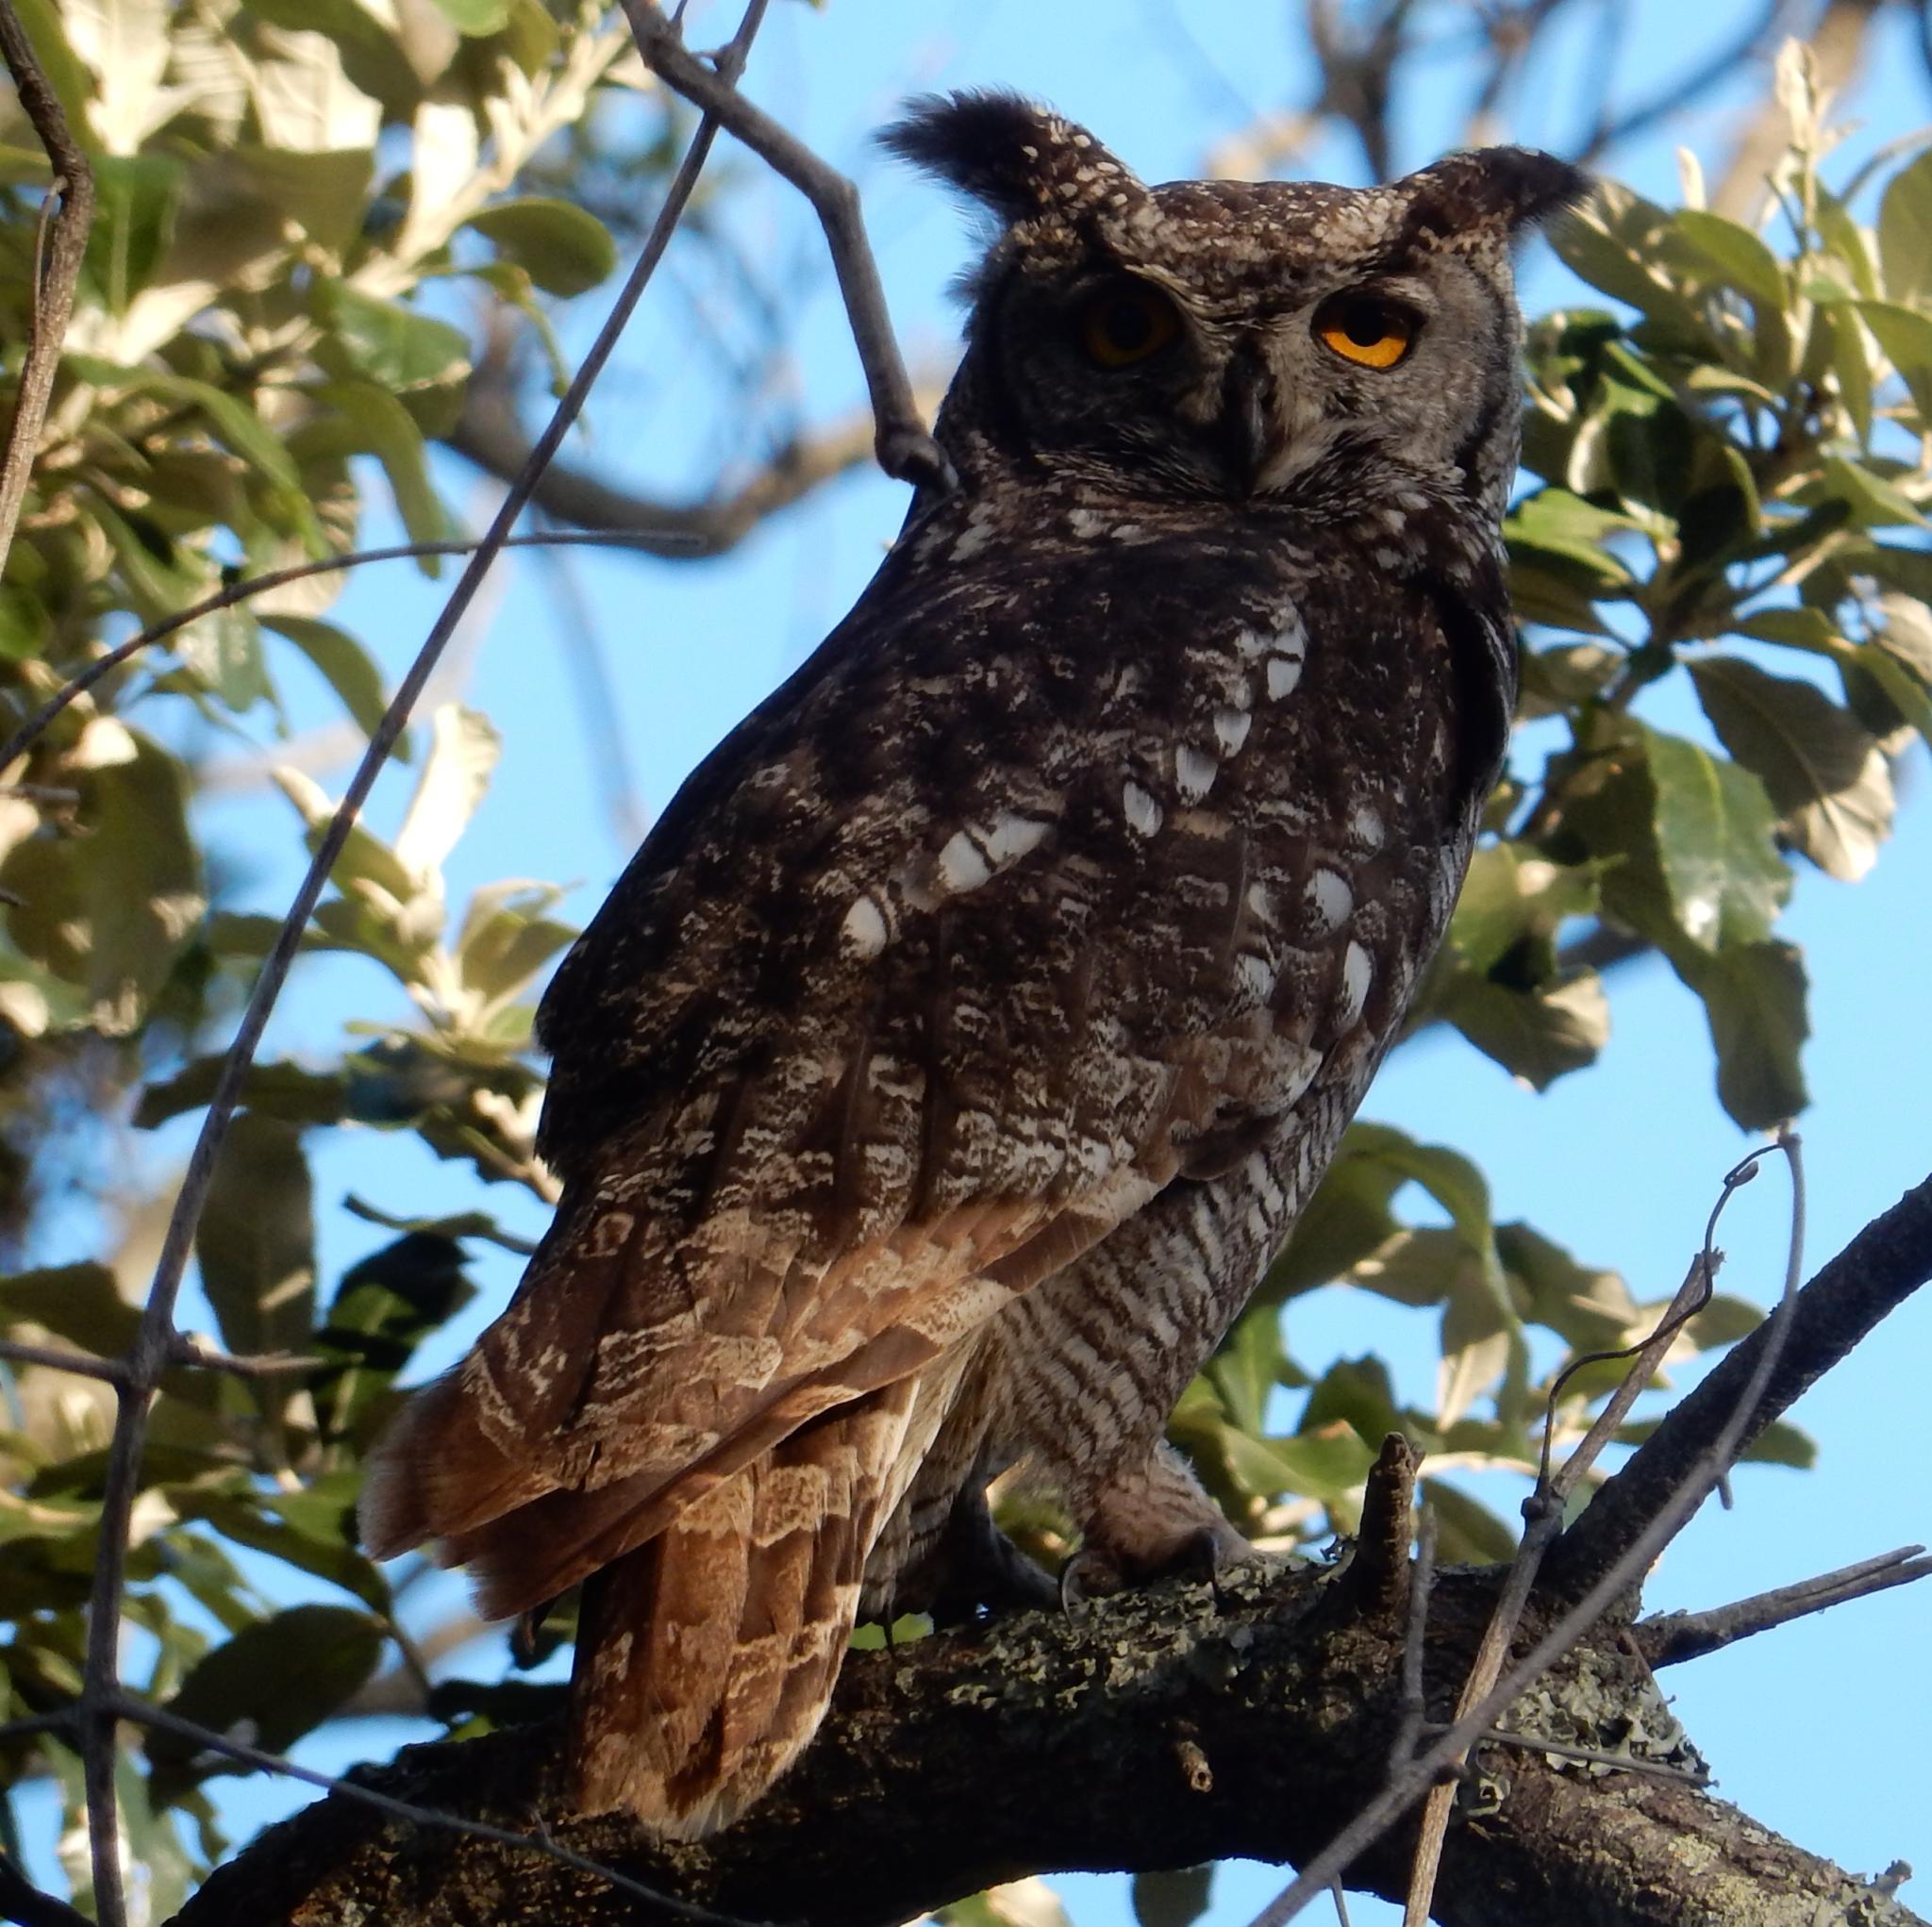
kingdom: Animalia
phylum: Chordata
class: Aves
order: Strigiformes
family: Strigidae
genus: Bubo
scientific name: Bubo africanus
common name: Spotted eagle-owl
